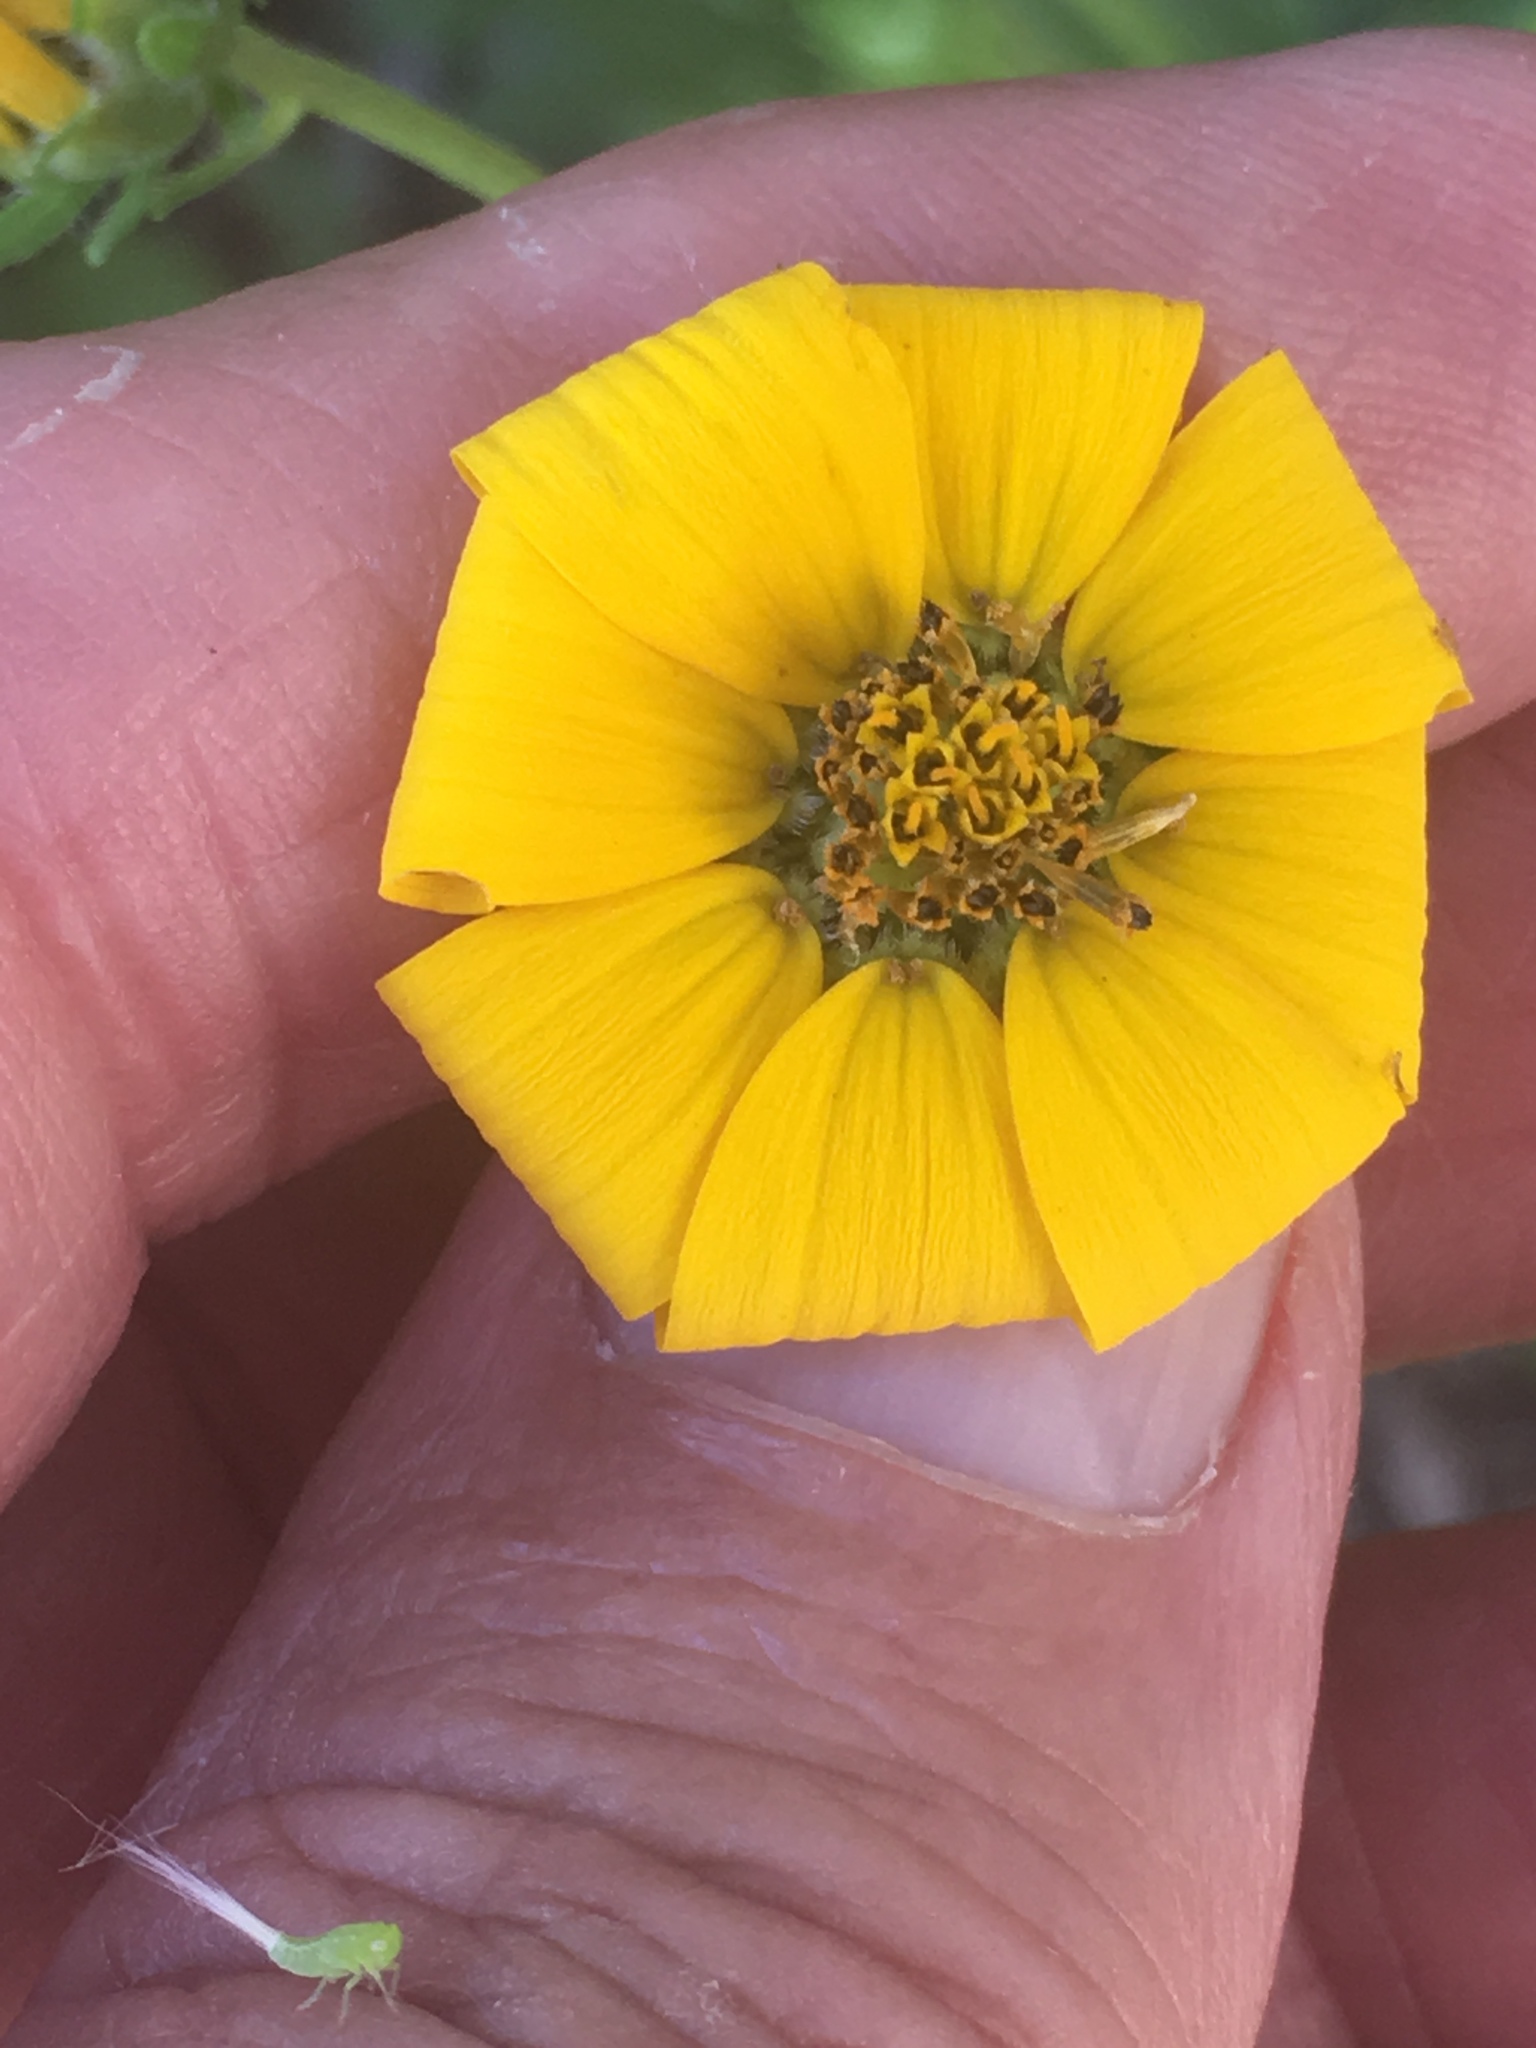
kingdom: Plantae
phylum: Tracheophyta
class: Magnoliopsida
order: Asterales
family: Asteraceae
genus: Engelmannia
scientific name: Engelmannia peristenia
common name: Engelmann's daisy
